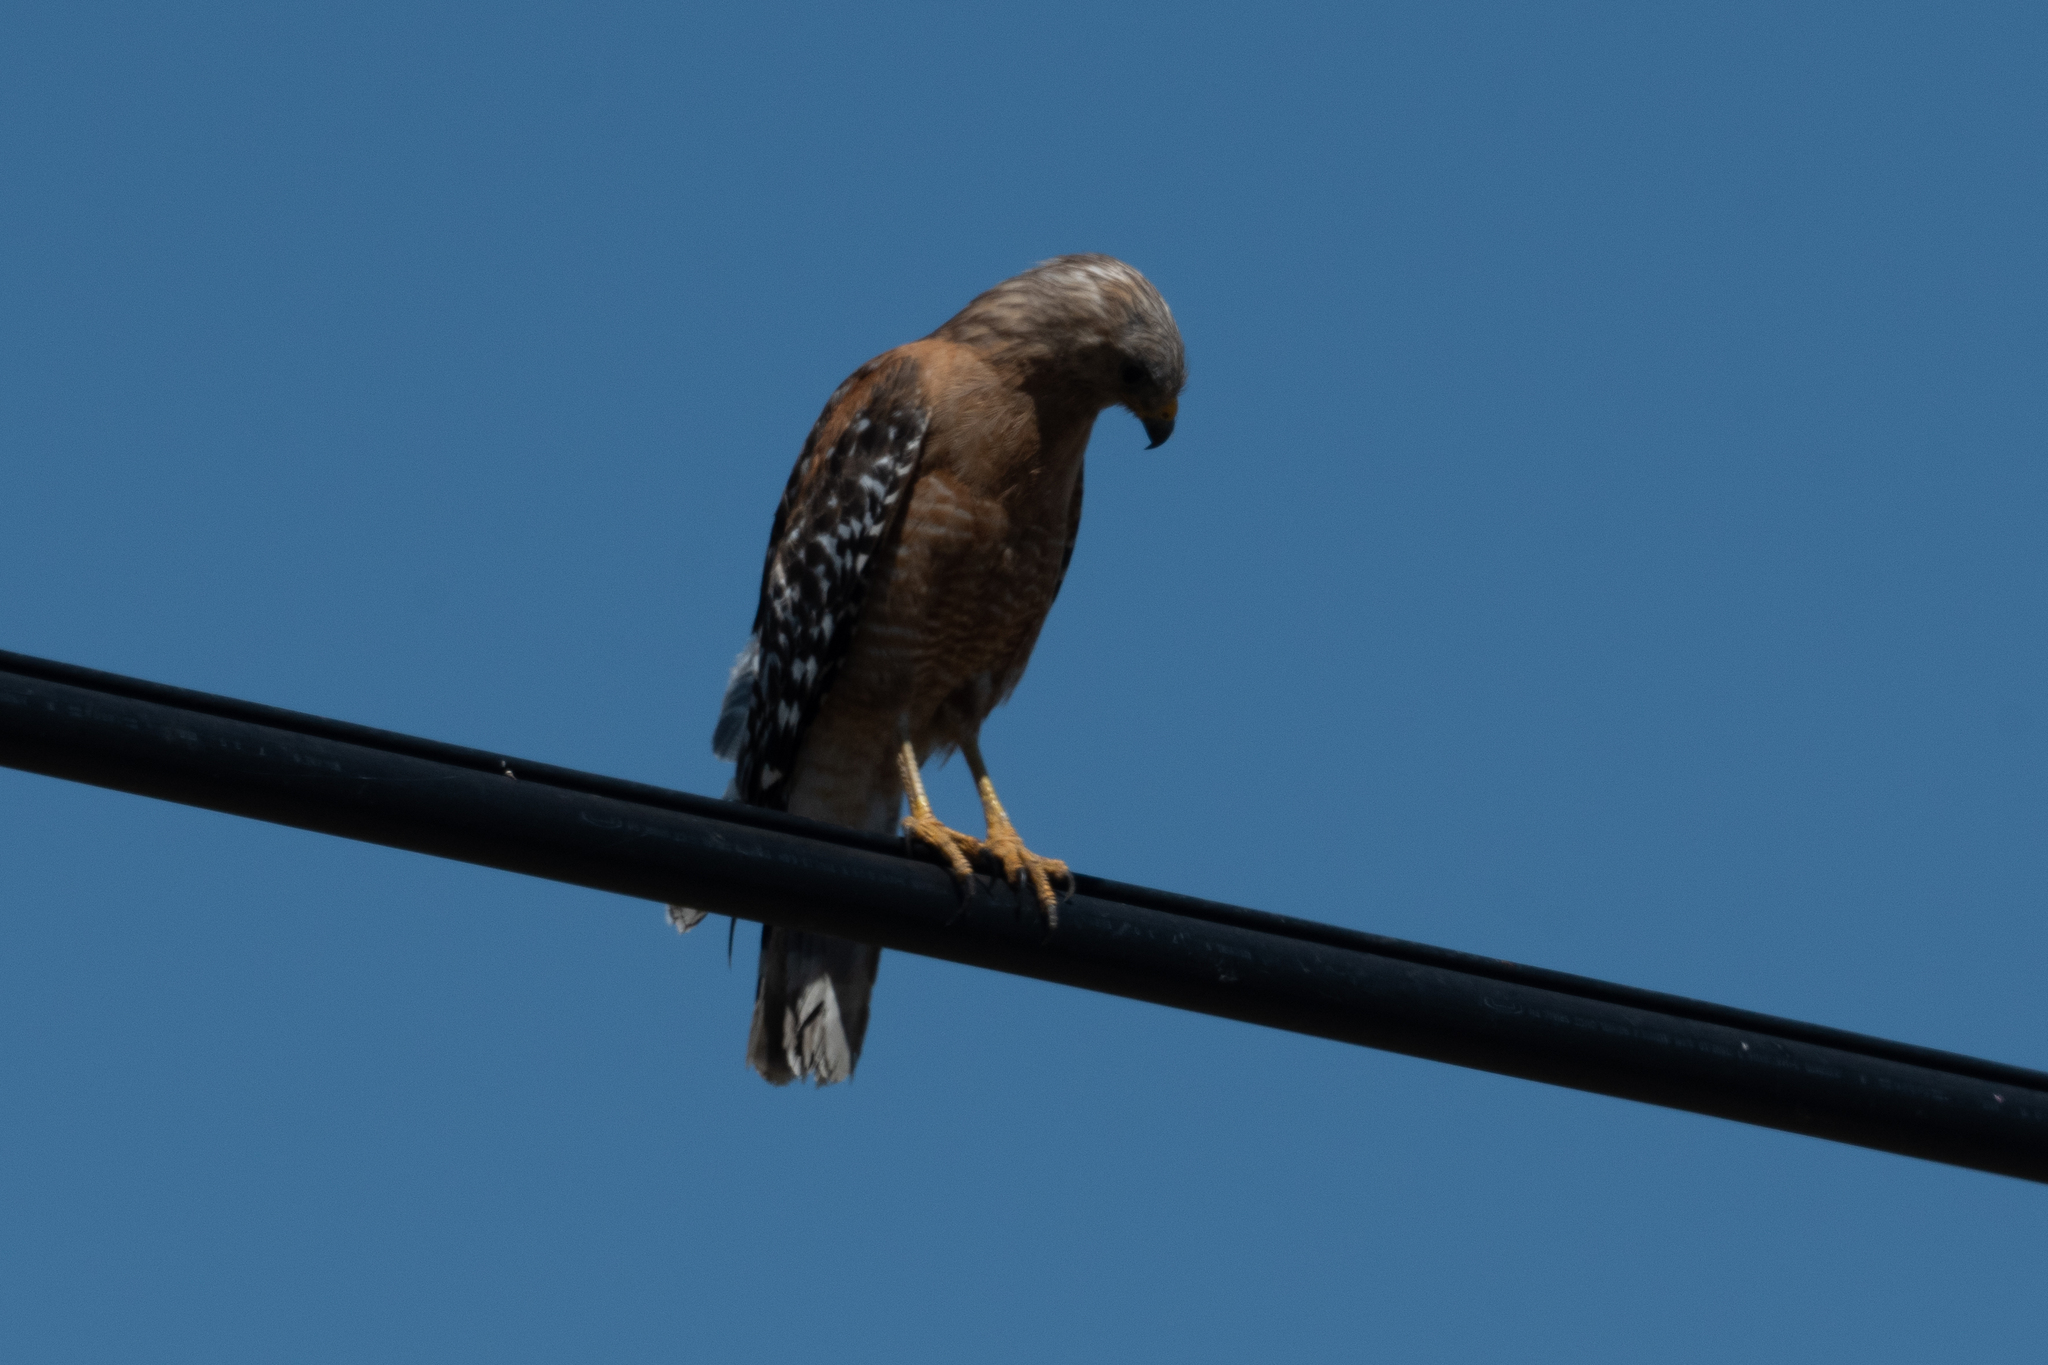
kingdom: Animalia
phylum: Chordata
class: Aves
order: Accipitriformes
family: Accipitridae
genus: Buteo
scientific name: Buteo lineatus
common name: Red-shouldered hawk
